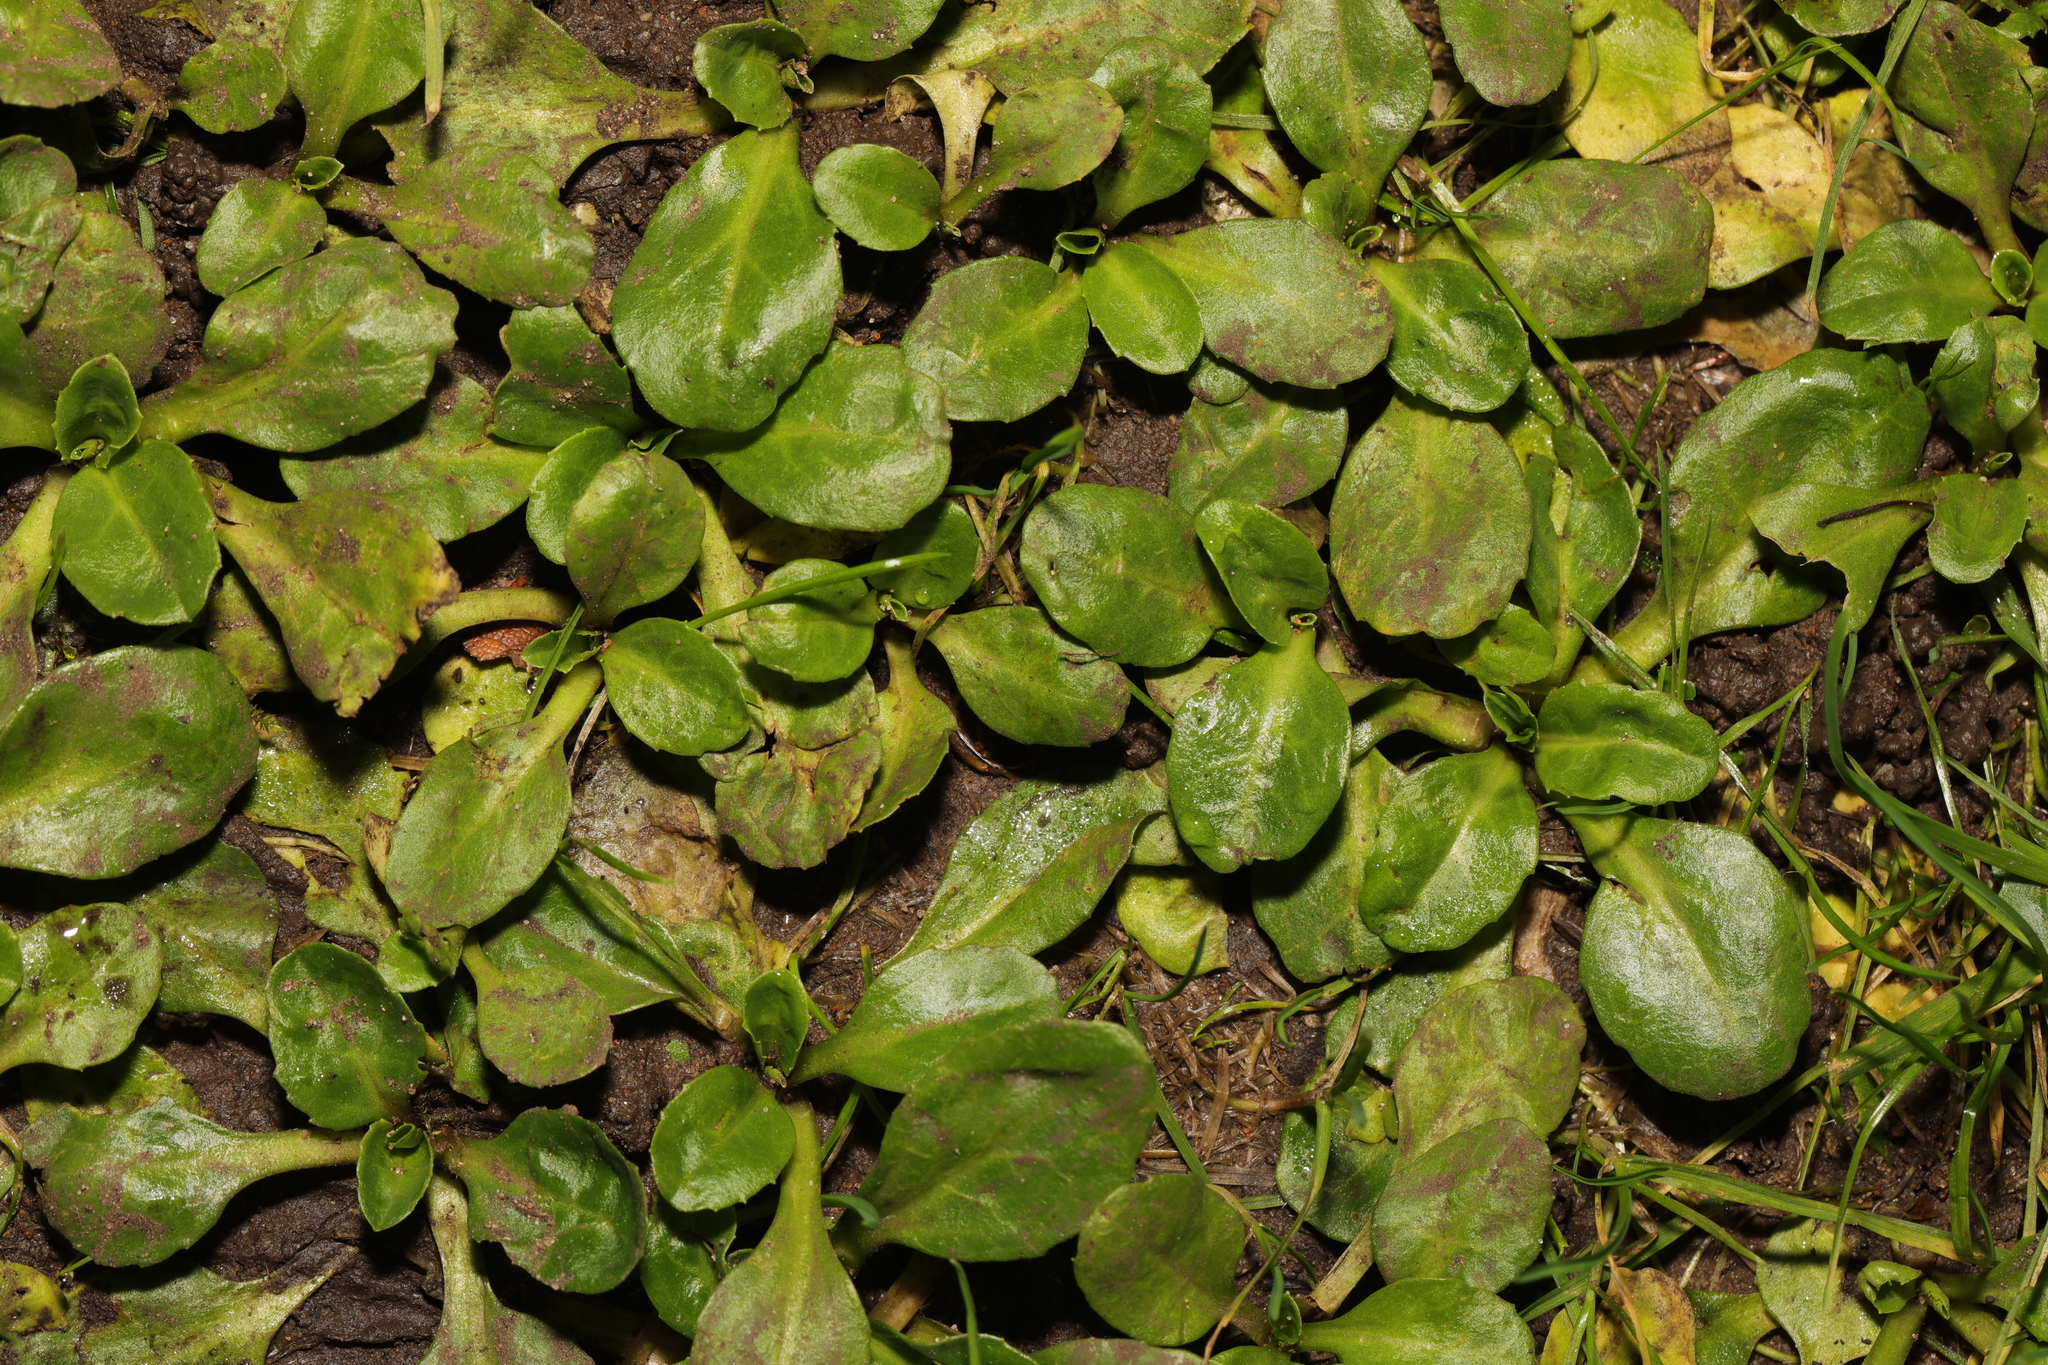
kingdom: Plantae
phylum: Tracheophyta
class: Magnoliopsida
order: Asterales
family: Asteraceae
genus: Bellis
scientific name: Bellis perennis
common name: Lawndaisy
